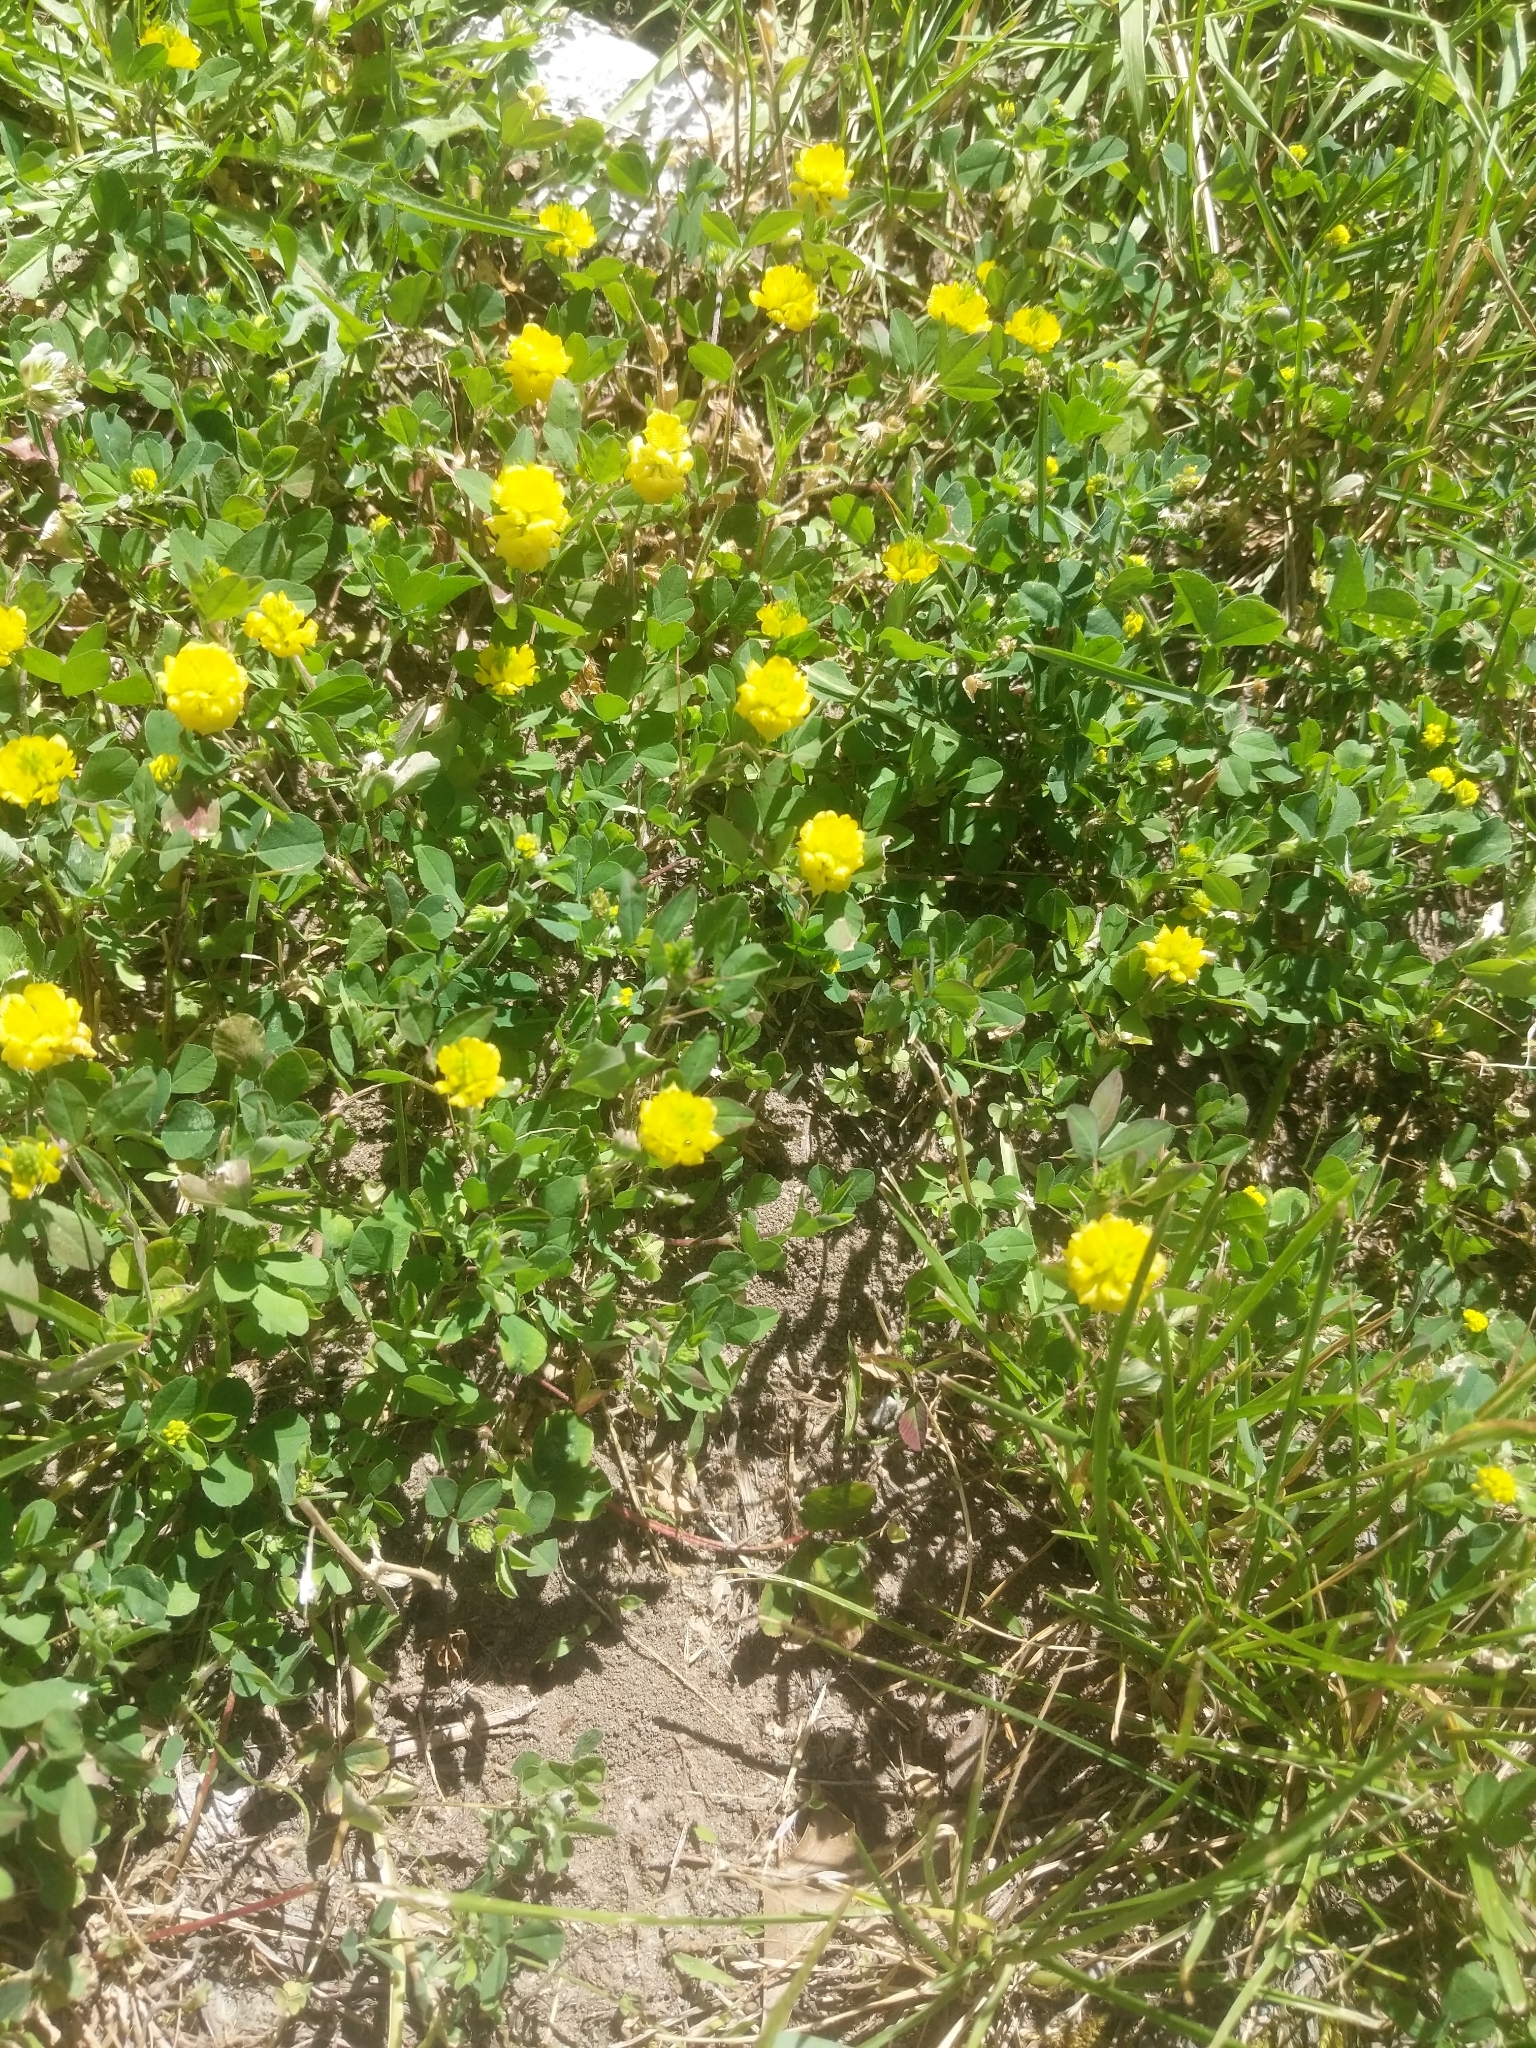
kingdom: Plantae
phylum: Tracheophyta
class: Magnoliopsida
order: Fabales
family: Fabaceae
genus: Trifolium
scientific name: Trifolium campestre
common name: Field clover
